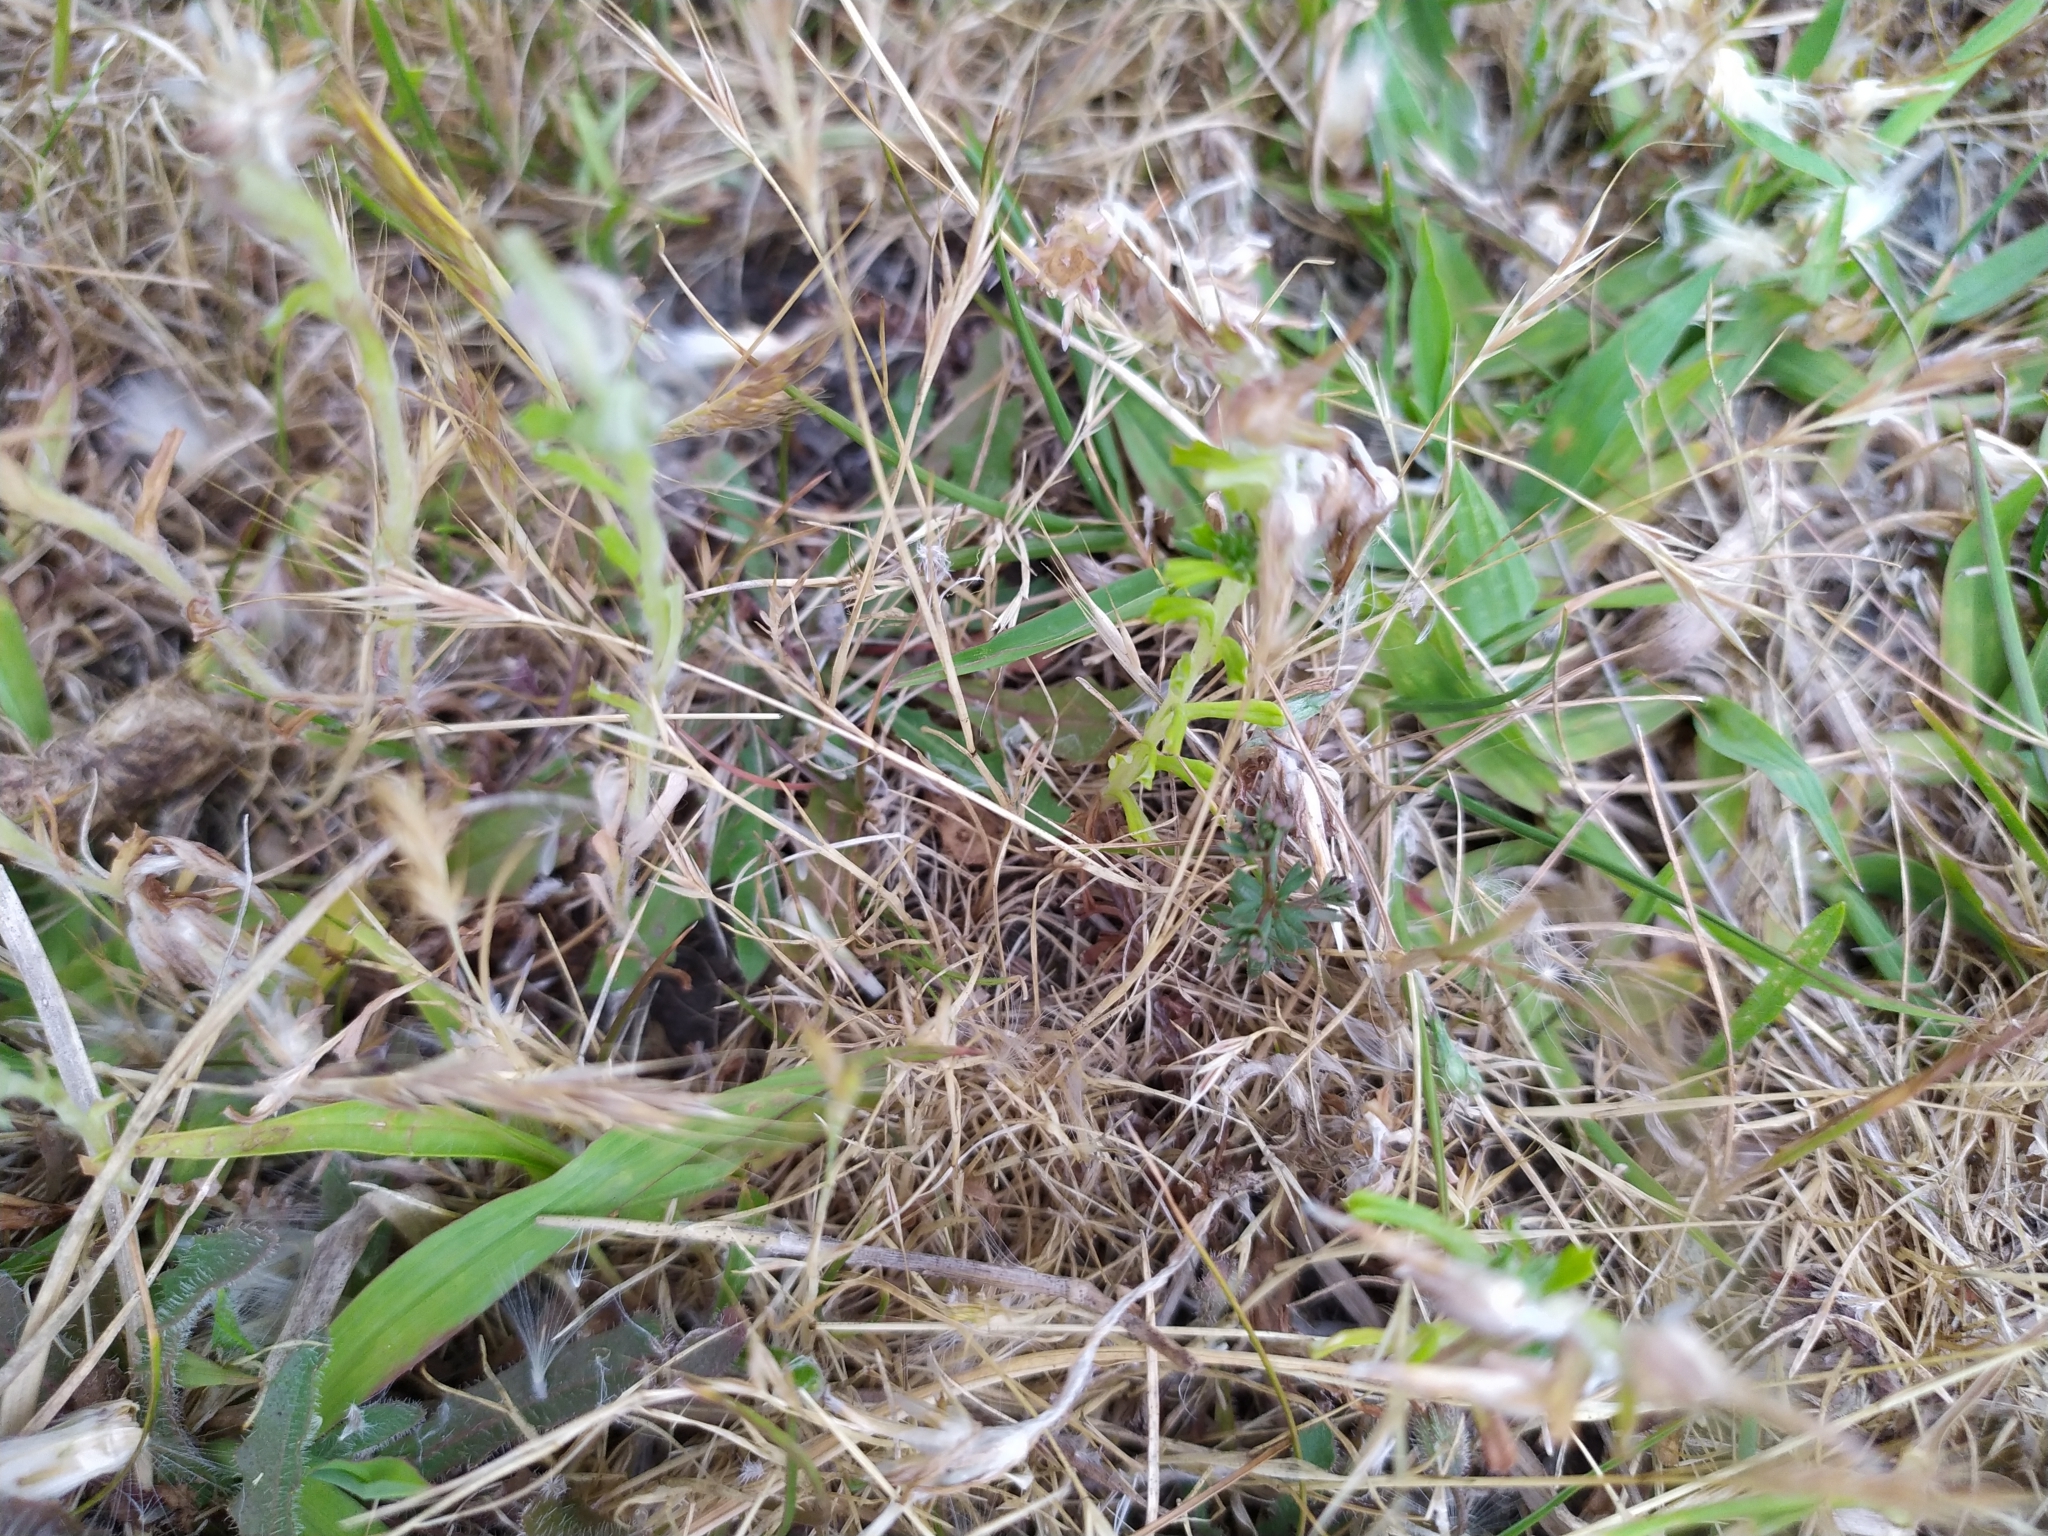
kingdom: Plantae
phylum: Tracheophyta
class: Magnoliopsida
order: Asterales
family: Asteraceae
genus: Facelis
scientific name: Facelis retusa
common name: Annual trampweed
